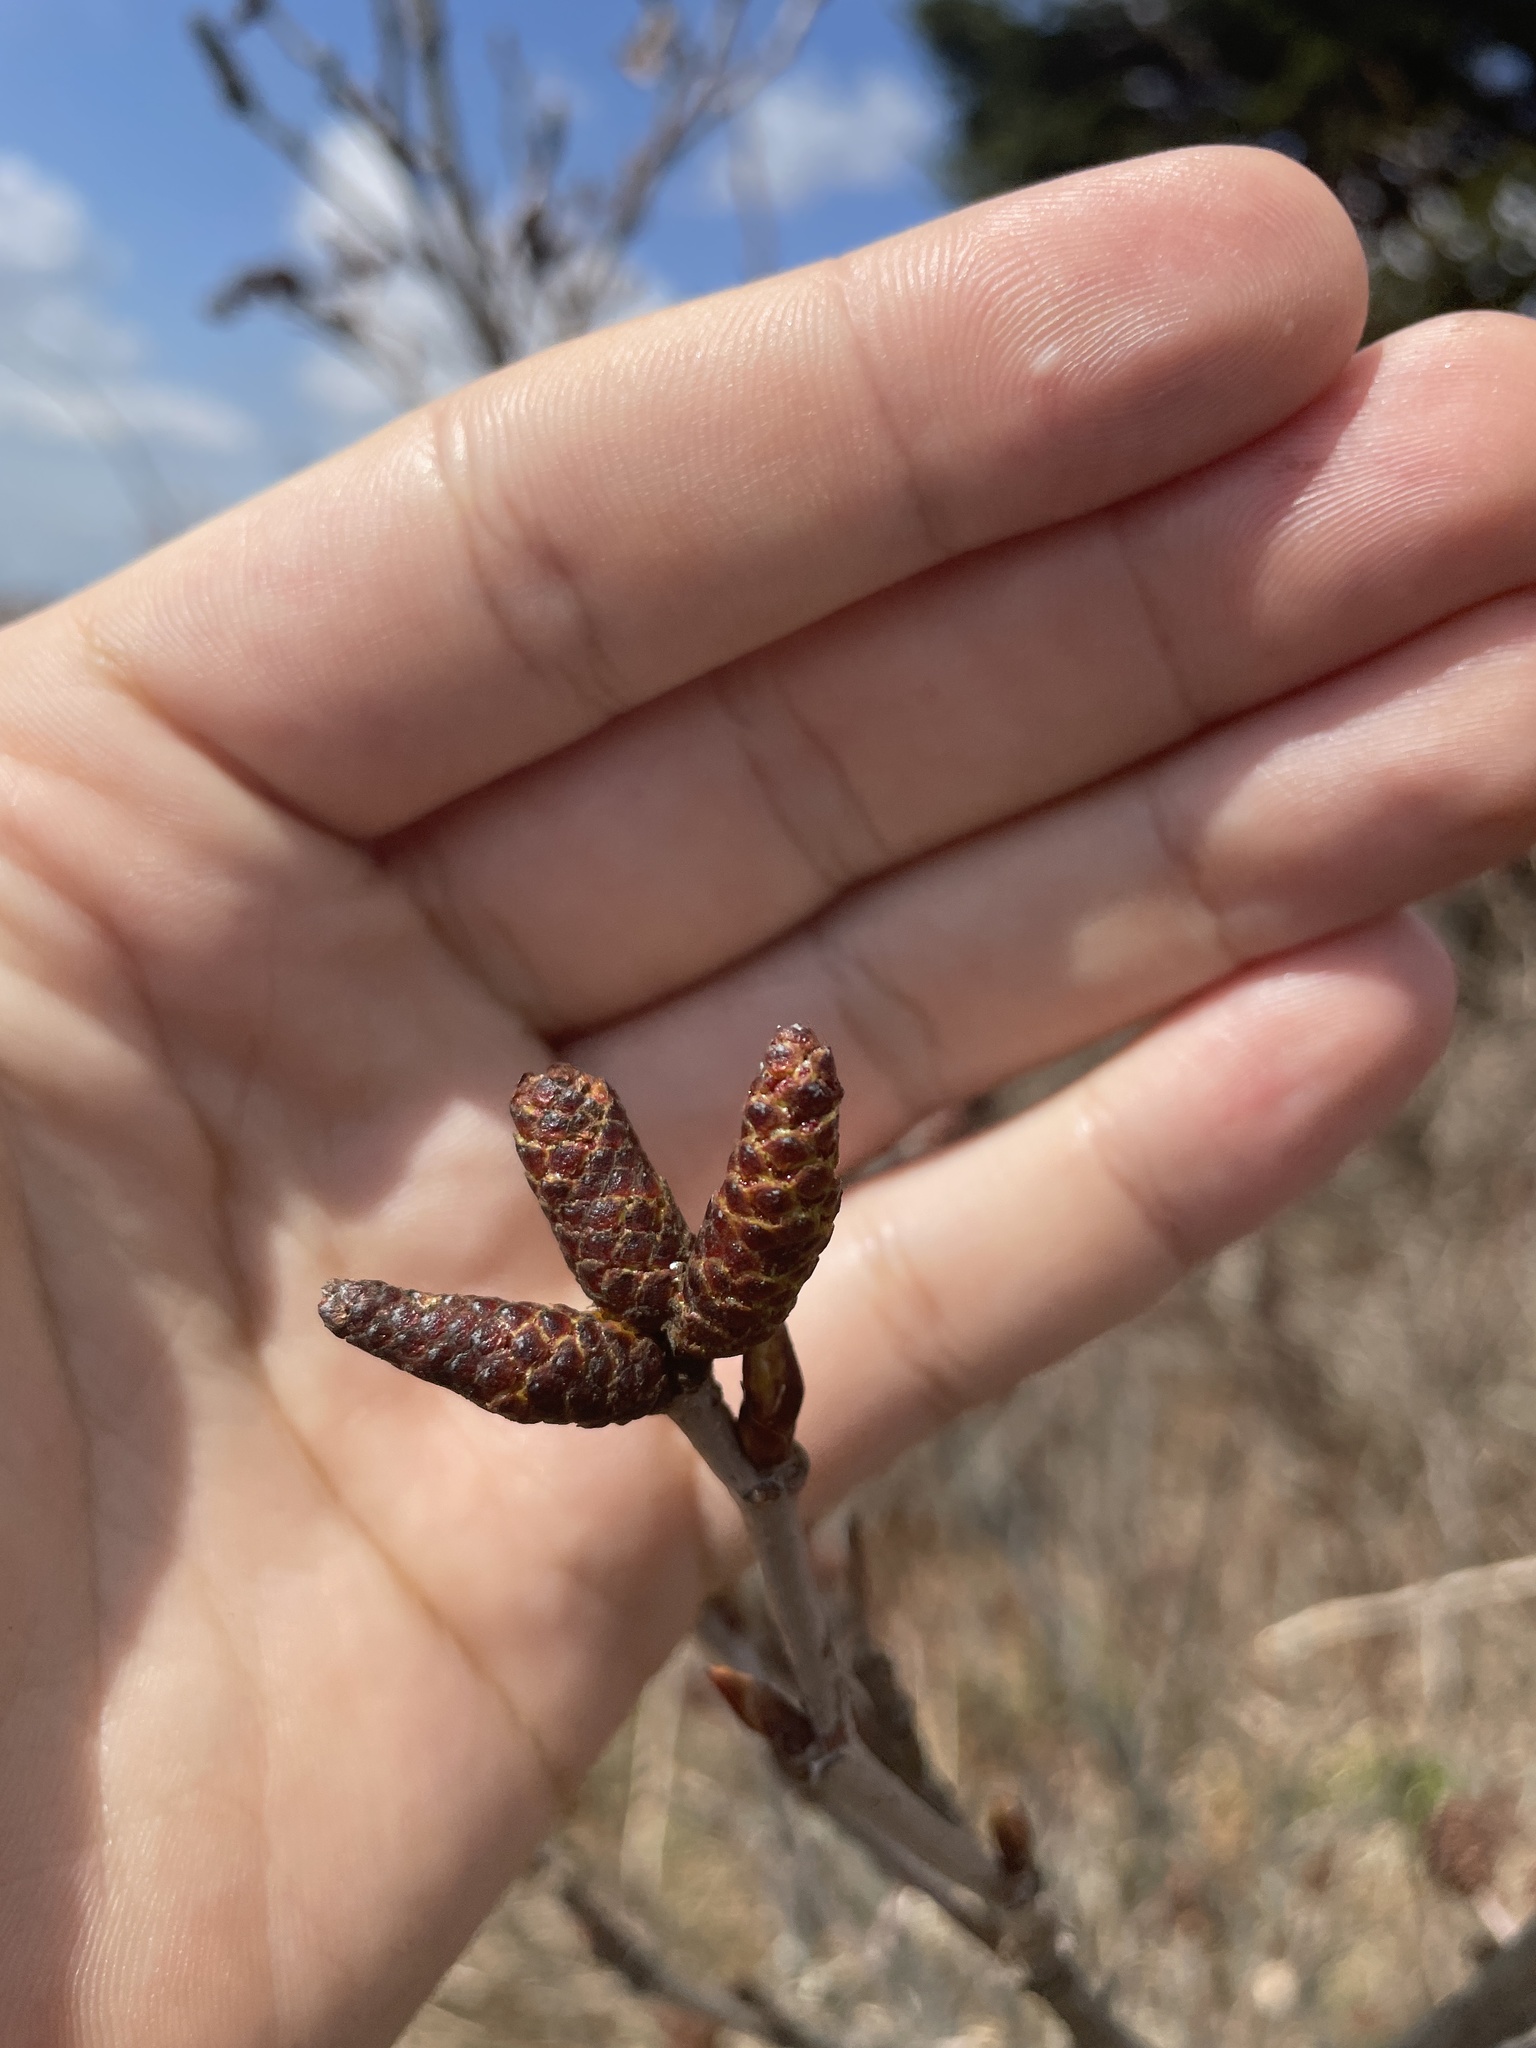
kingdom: Plantae
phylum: Tracheophyta
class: Magnoliopsida
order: Fagales
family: Betulaceae
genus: Alnus
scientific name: Alnus alnobetula
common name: Green alder
